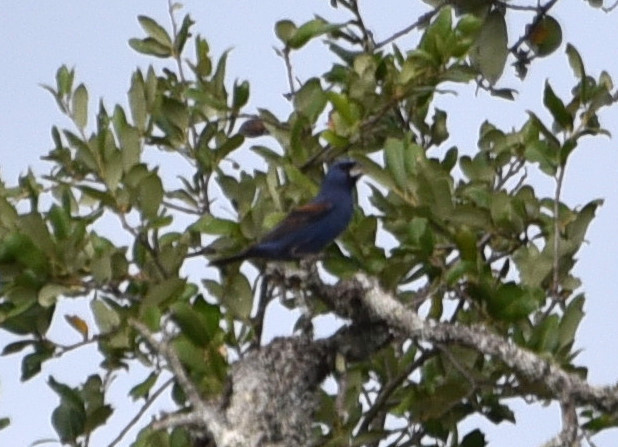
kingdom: Animalia
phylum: Chordata
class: Aves
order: Passeriformes
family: Cardinalidae
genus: Passerina
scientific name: Passerina caerulea
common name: Blue grosbeak
